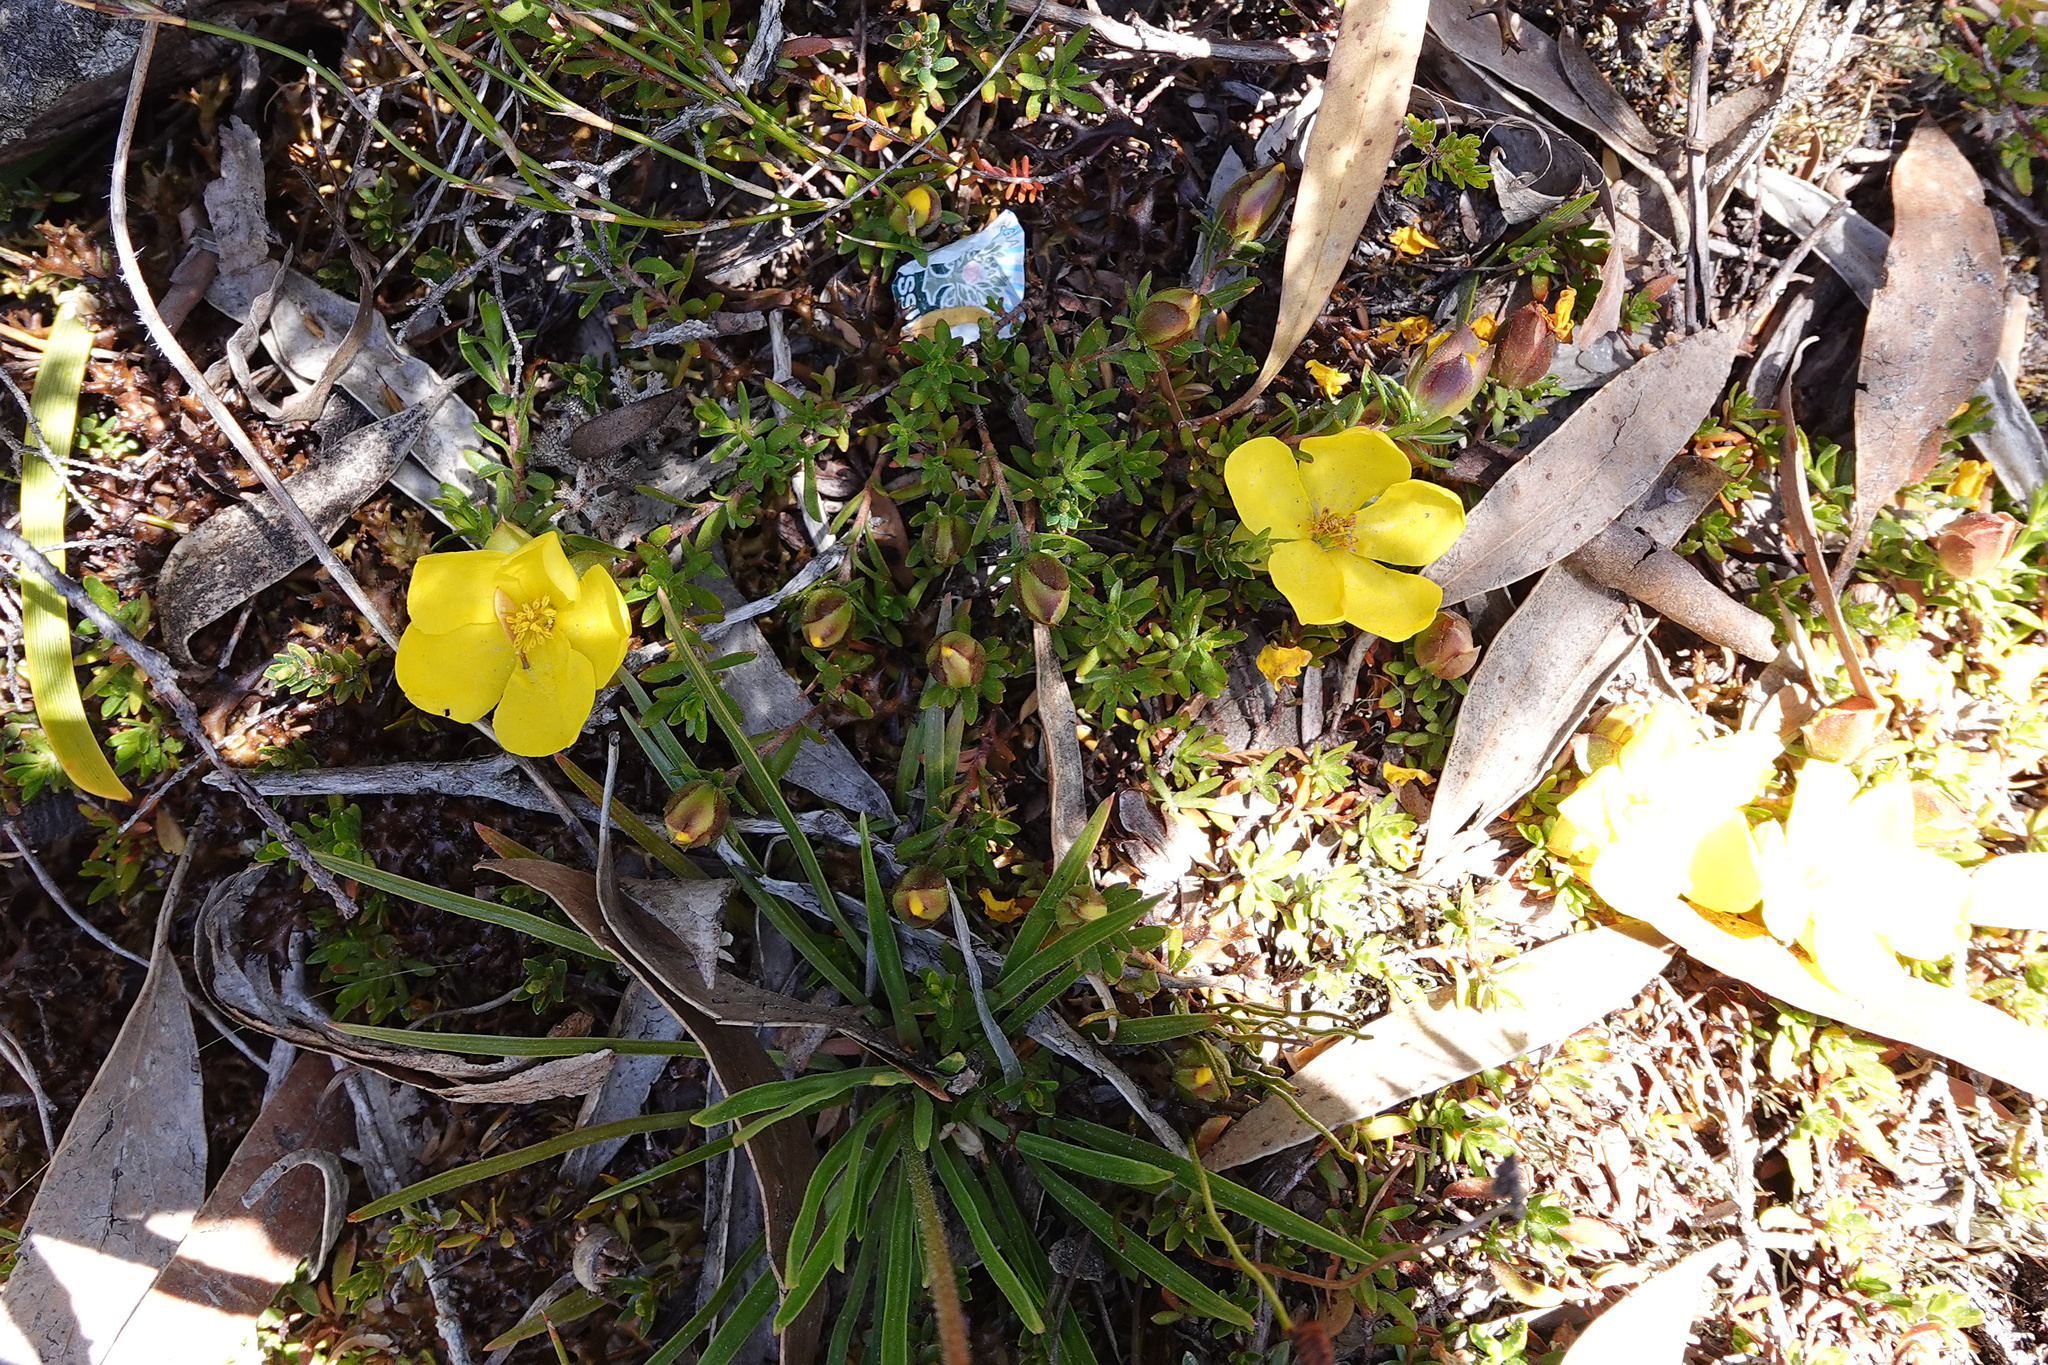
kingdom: Plantae
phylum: Tracheophyta
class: Magnoliopsida
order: Dilleniales
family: Dilleniaceae
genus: Hibbertia
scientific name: Hibbertia procumbens
